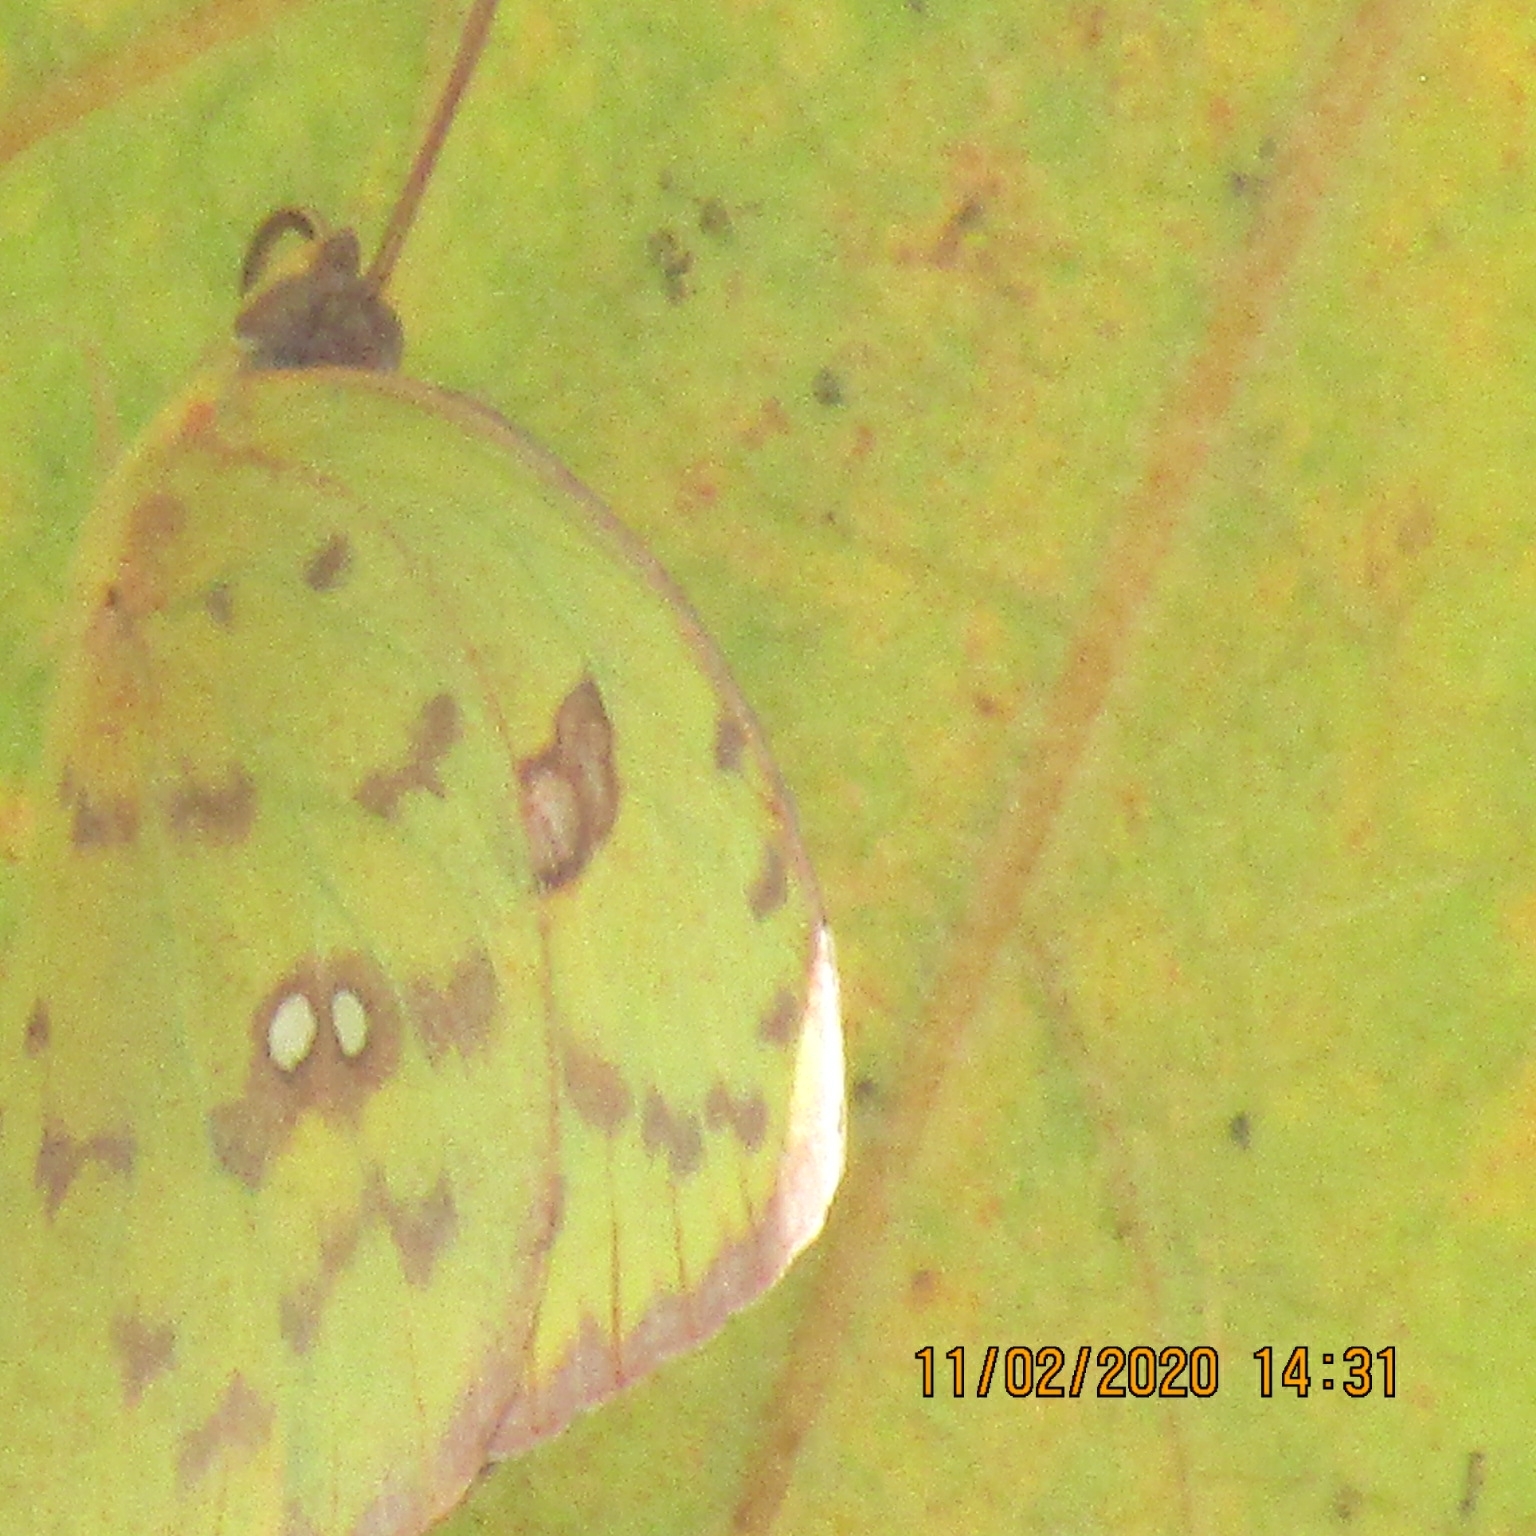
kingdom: Animalia
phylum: Arthropoda
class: Insecta
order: Lepidoptera
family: Pieridae
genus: Phoebis
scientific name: Phoebis sennae
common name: Cloudless sulphur
